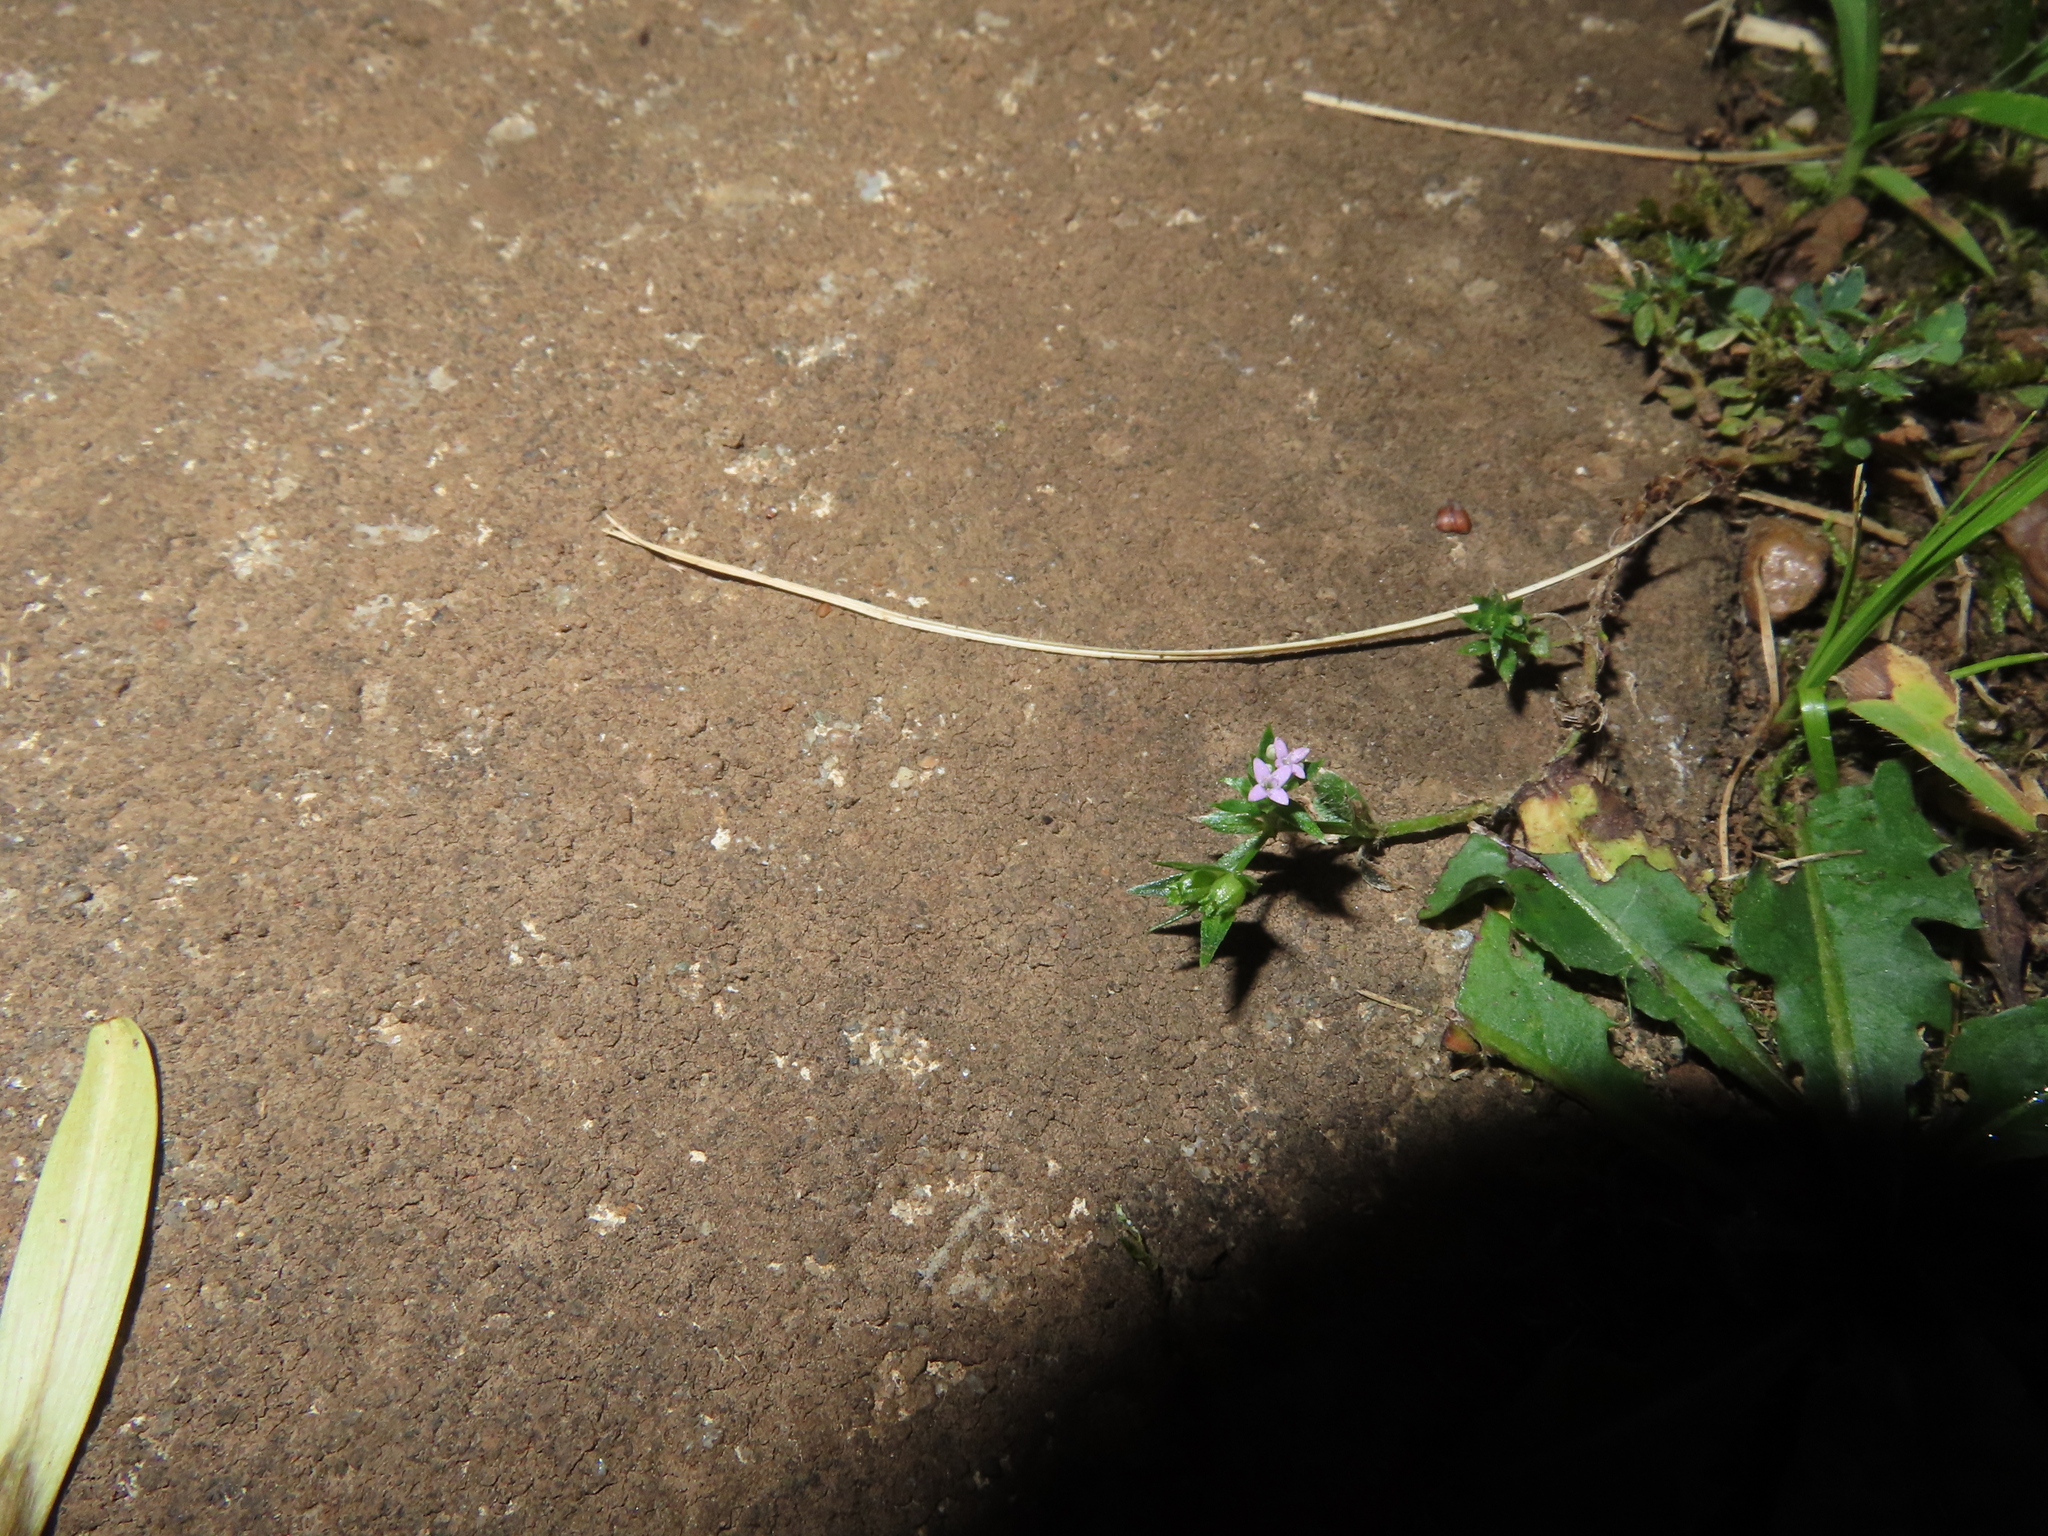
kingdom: Plantae
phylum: Tracheophyta
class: Magnoliopsida
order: Gentianales
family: Rubiaceae
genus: Sherardia
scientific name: Sherardia arvensis
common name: Field madder
